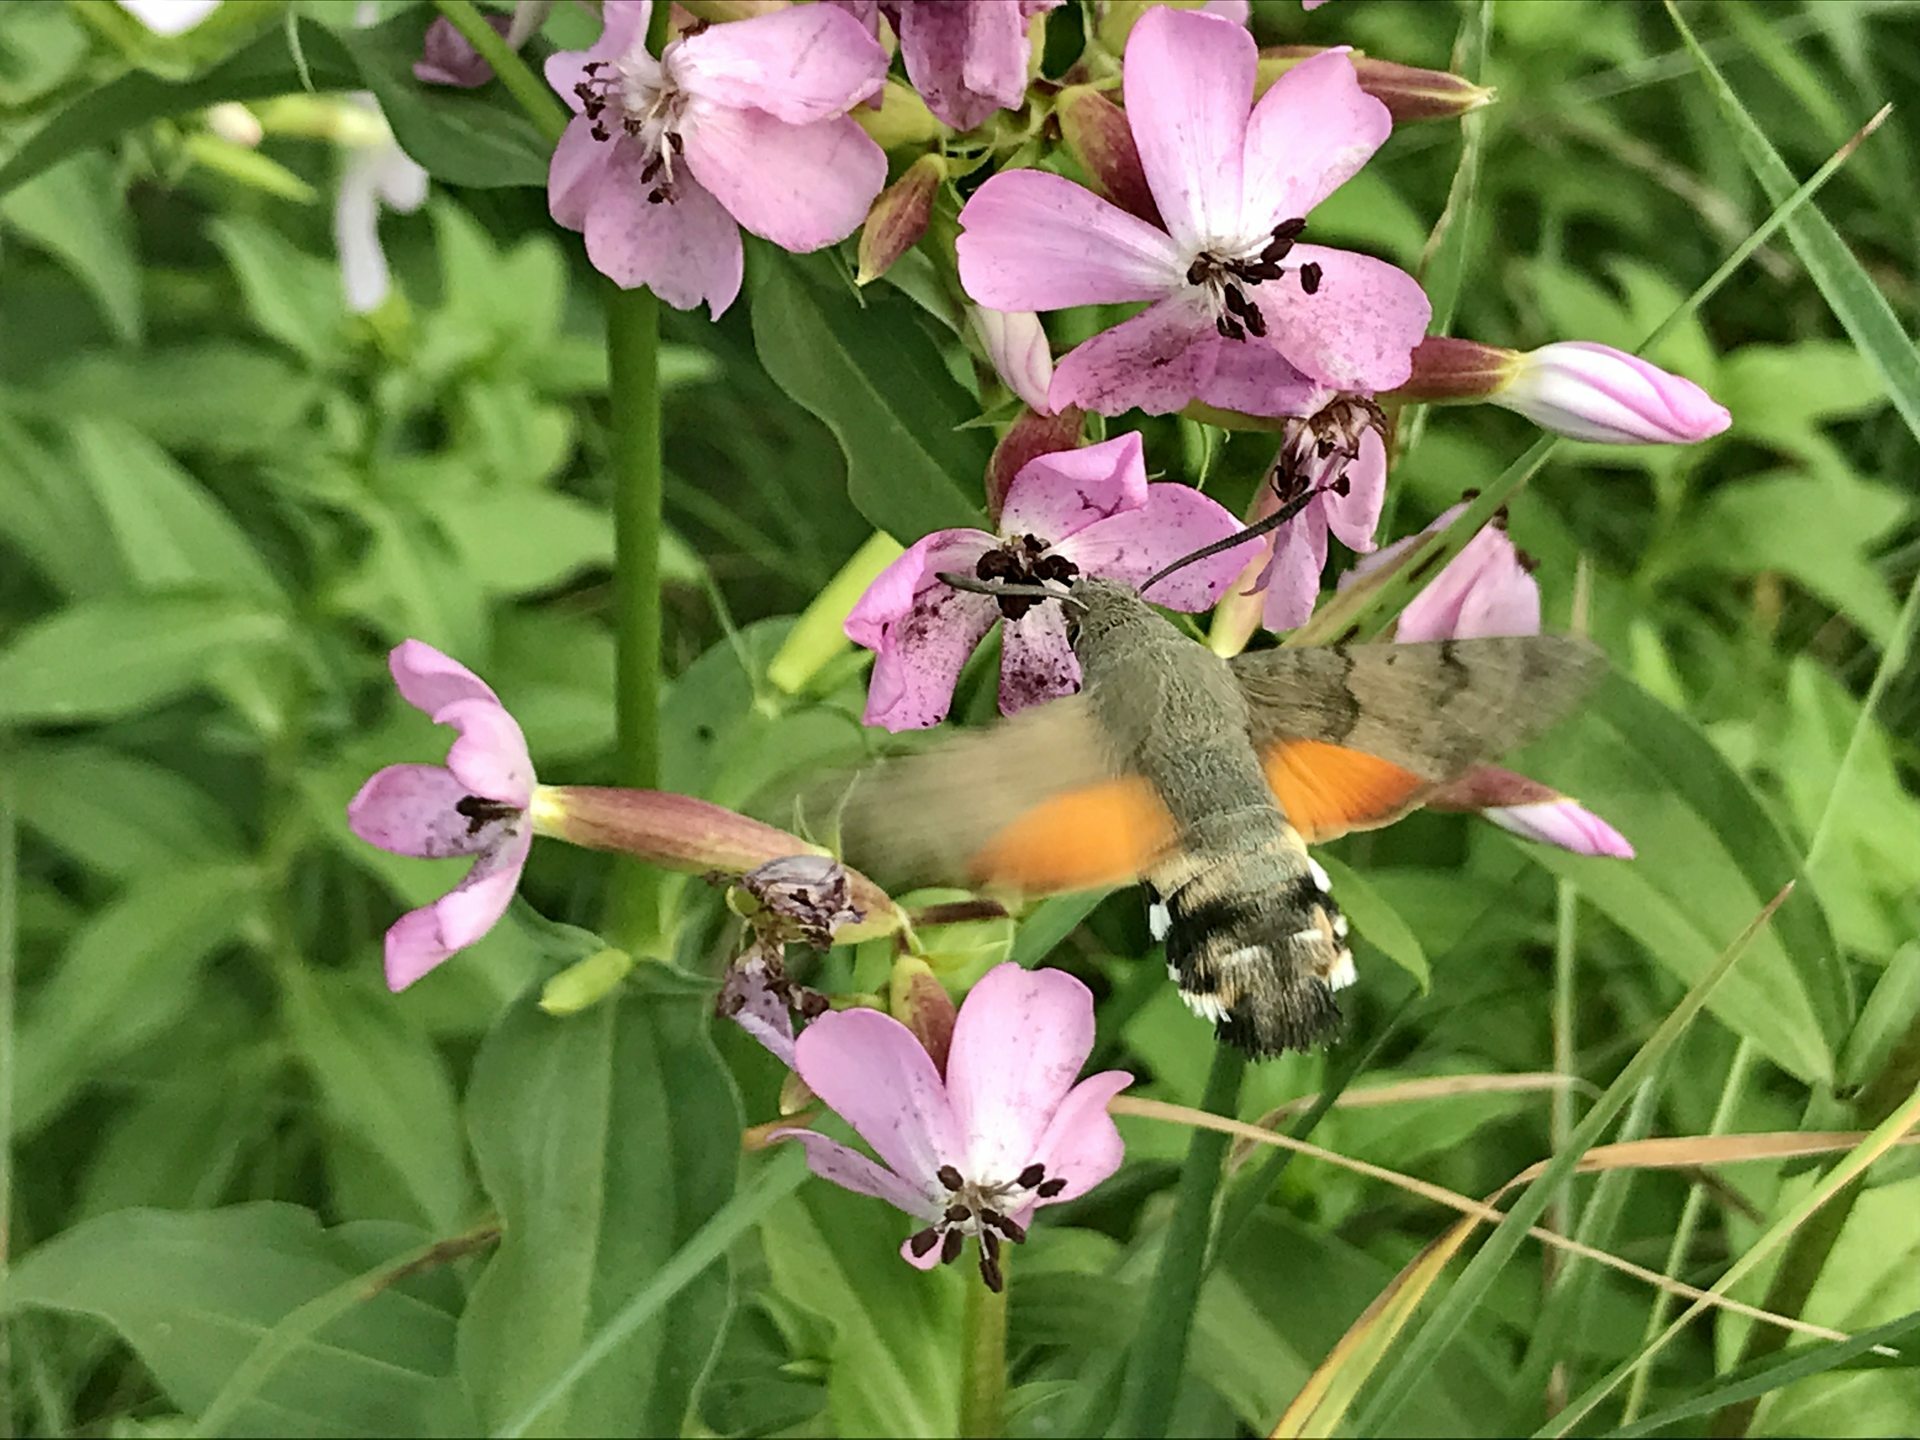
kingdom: Animalia
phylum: Arthropoda
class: Insecta
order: Lepidoptera
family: Sphingidae
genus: Macroglossum
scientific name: Macroglossum stellatarum
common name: Humming-bird hawk-moth
